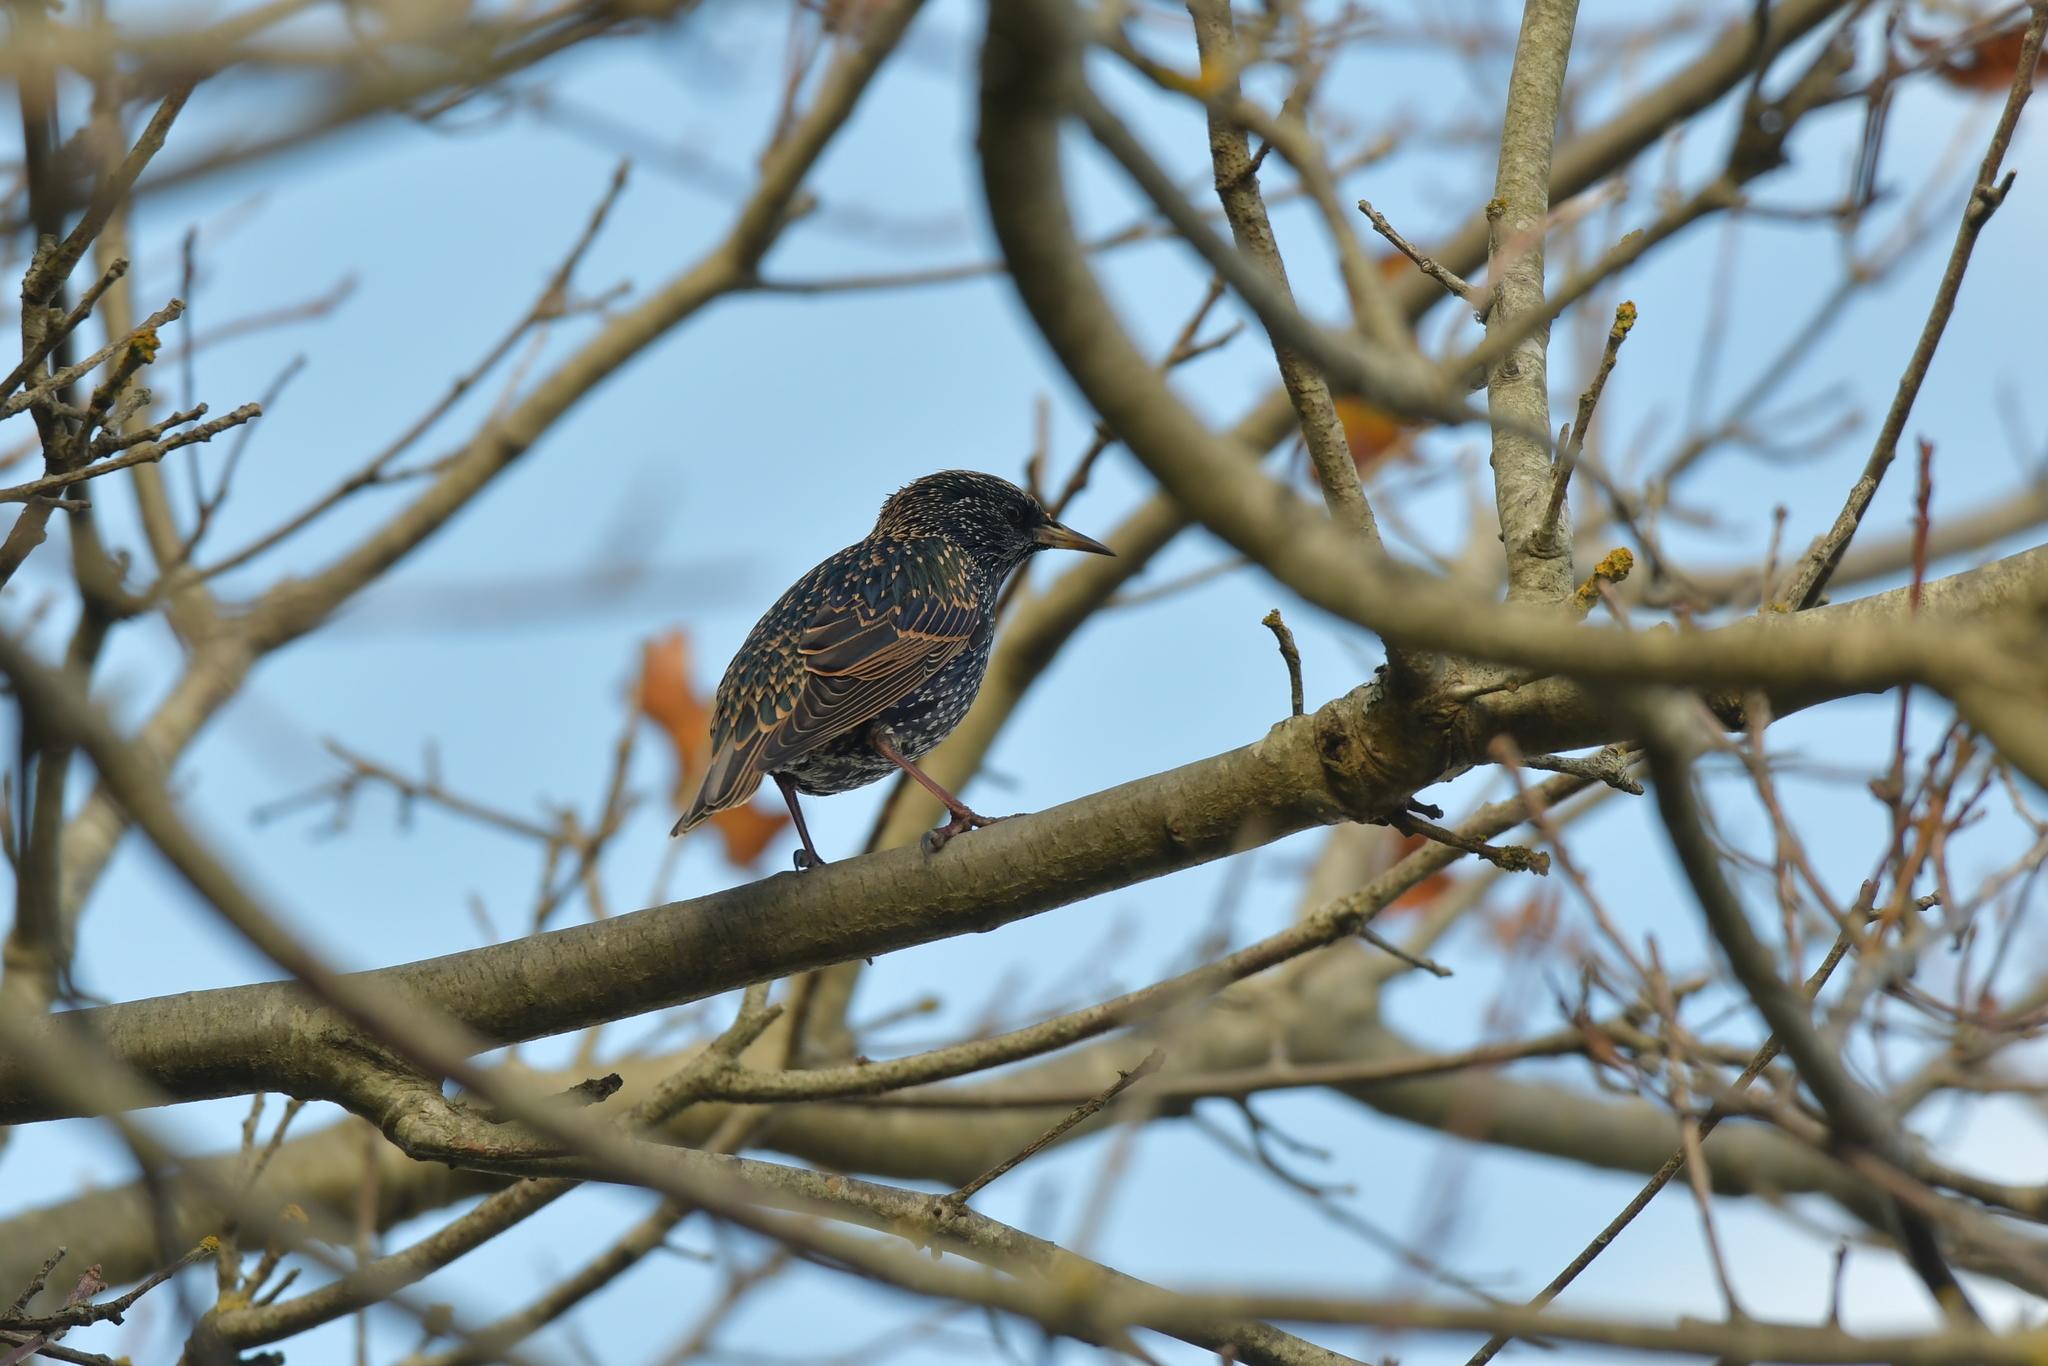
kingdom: Animalia
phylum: Chordata
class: Aves
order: Passeriformes
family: Sturnidae
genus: Sturnus
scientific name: Sturnus vulgaris
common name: Common starling
